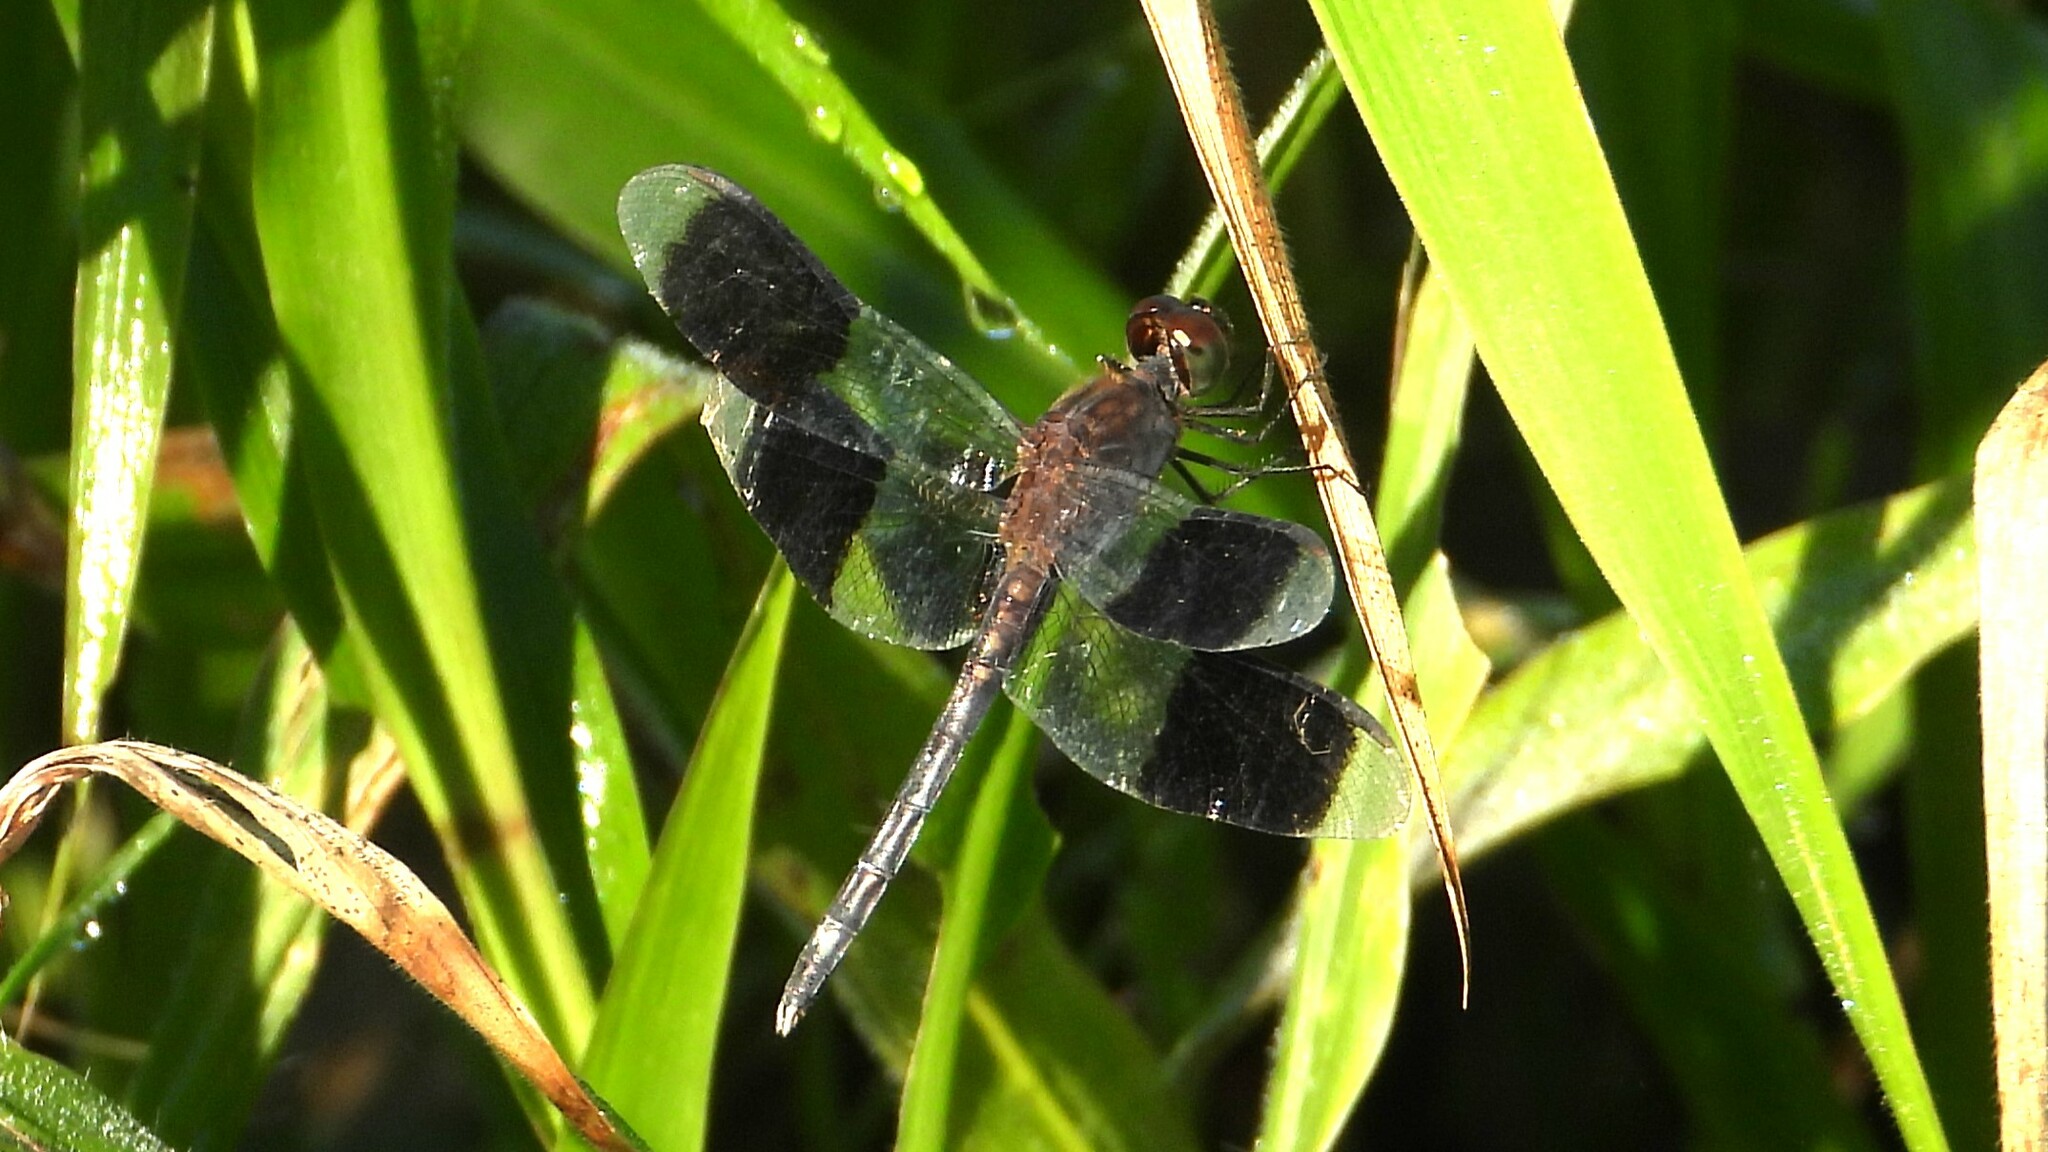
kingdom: Animalia
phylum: Arthropoda
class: Insecta
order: Odonata
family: Libellulidae
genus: Erythrodiplax
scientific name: Erythrodiplax umbrata
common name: Band-winged dragonlet
